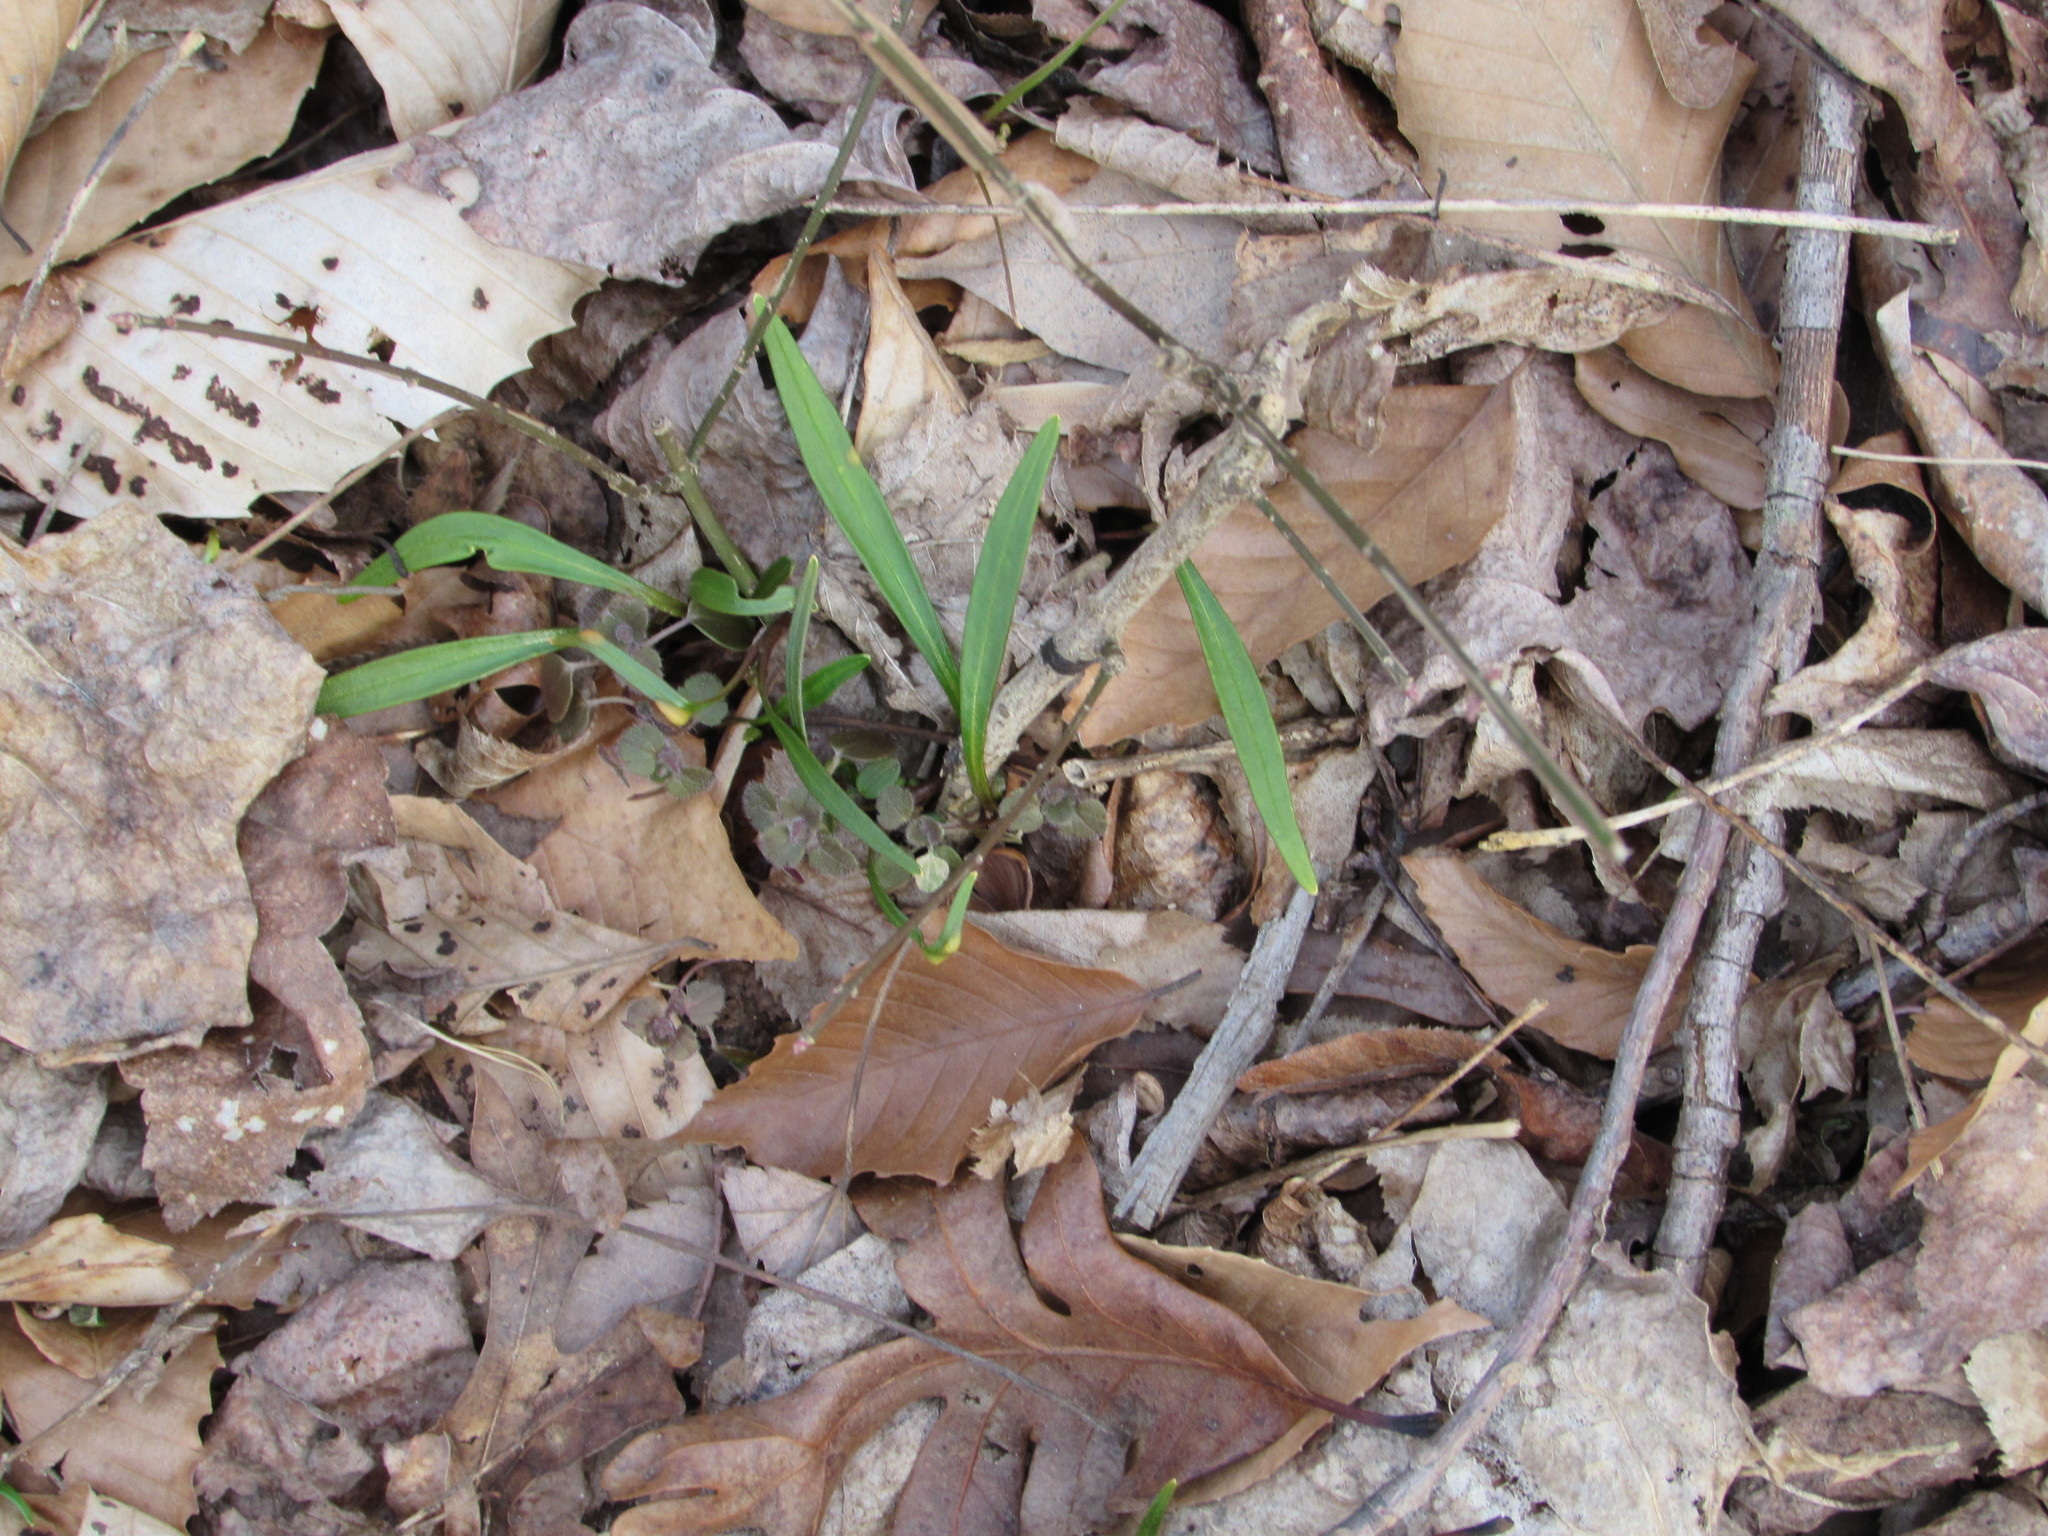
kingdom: Plantae
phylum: Tracheophyta
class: Magnoliopsida
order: Caryophyllales
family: Montiaceae
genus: Claytonia
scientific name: Claytonia virginica
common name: Virginia springbeauty
